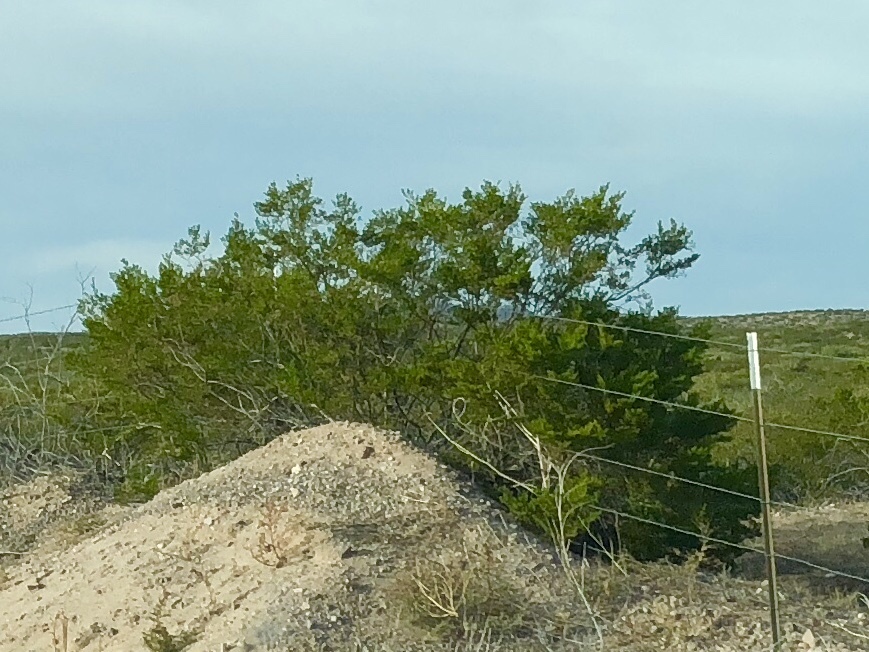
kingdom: Plantae
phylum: Tracheophyta
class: Magnoliopsida
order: Zygophyllales
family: Zygophyllaceae
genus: Larrea
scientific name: Larrea tridentata
